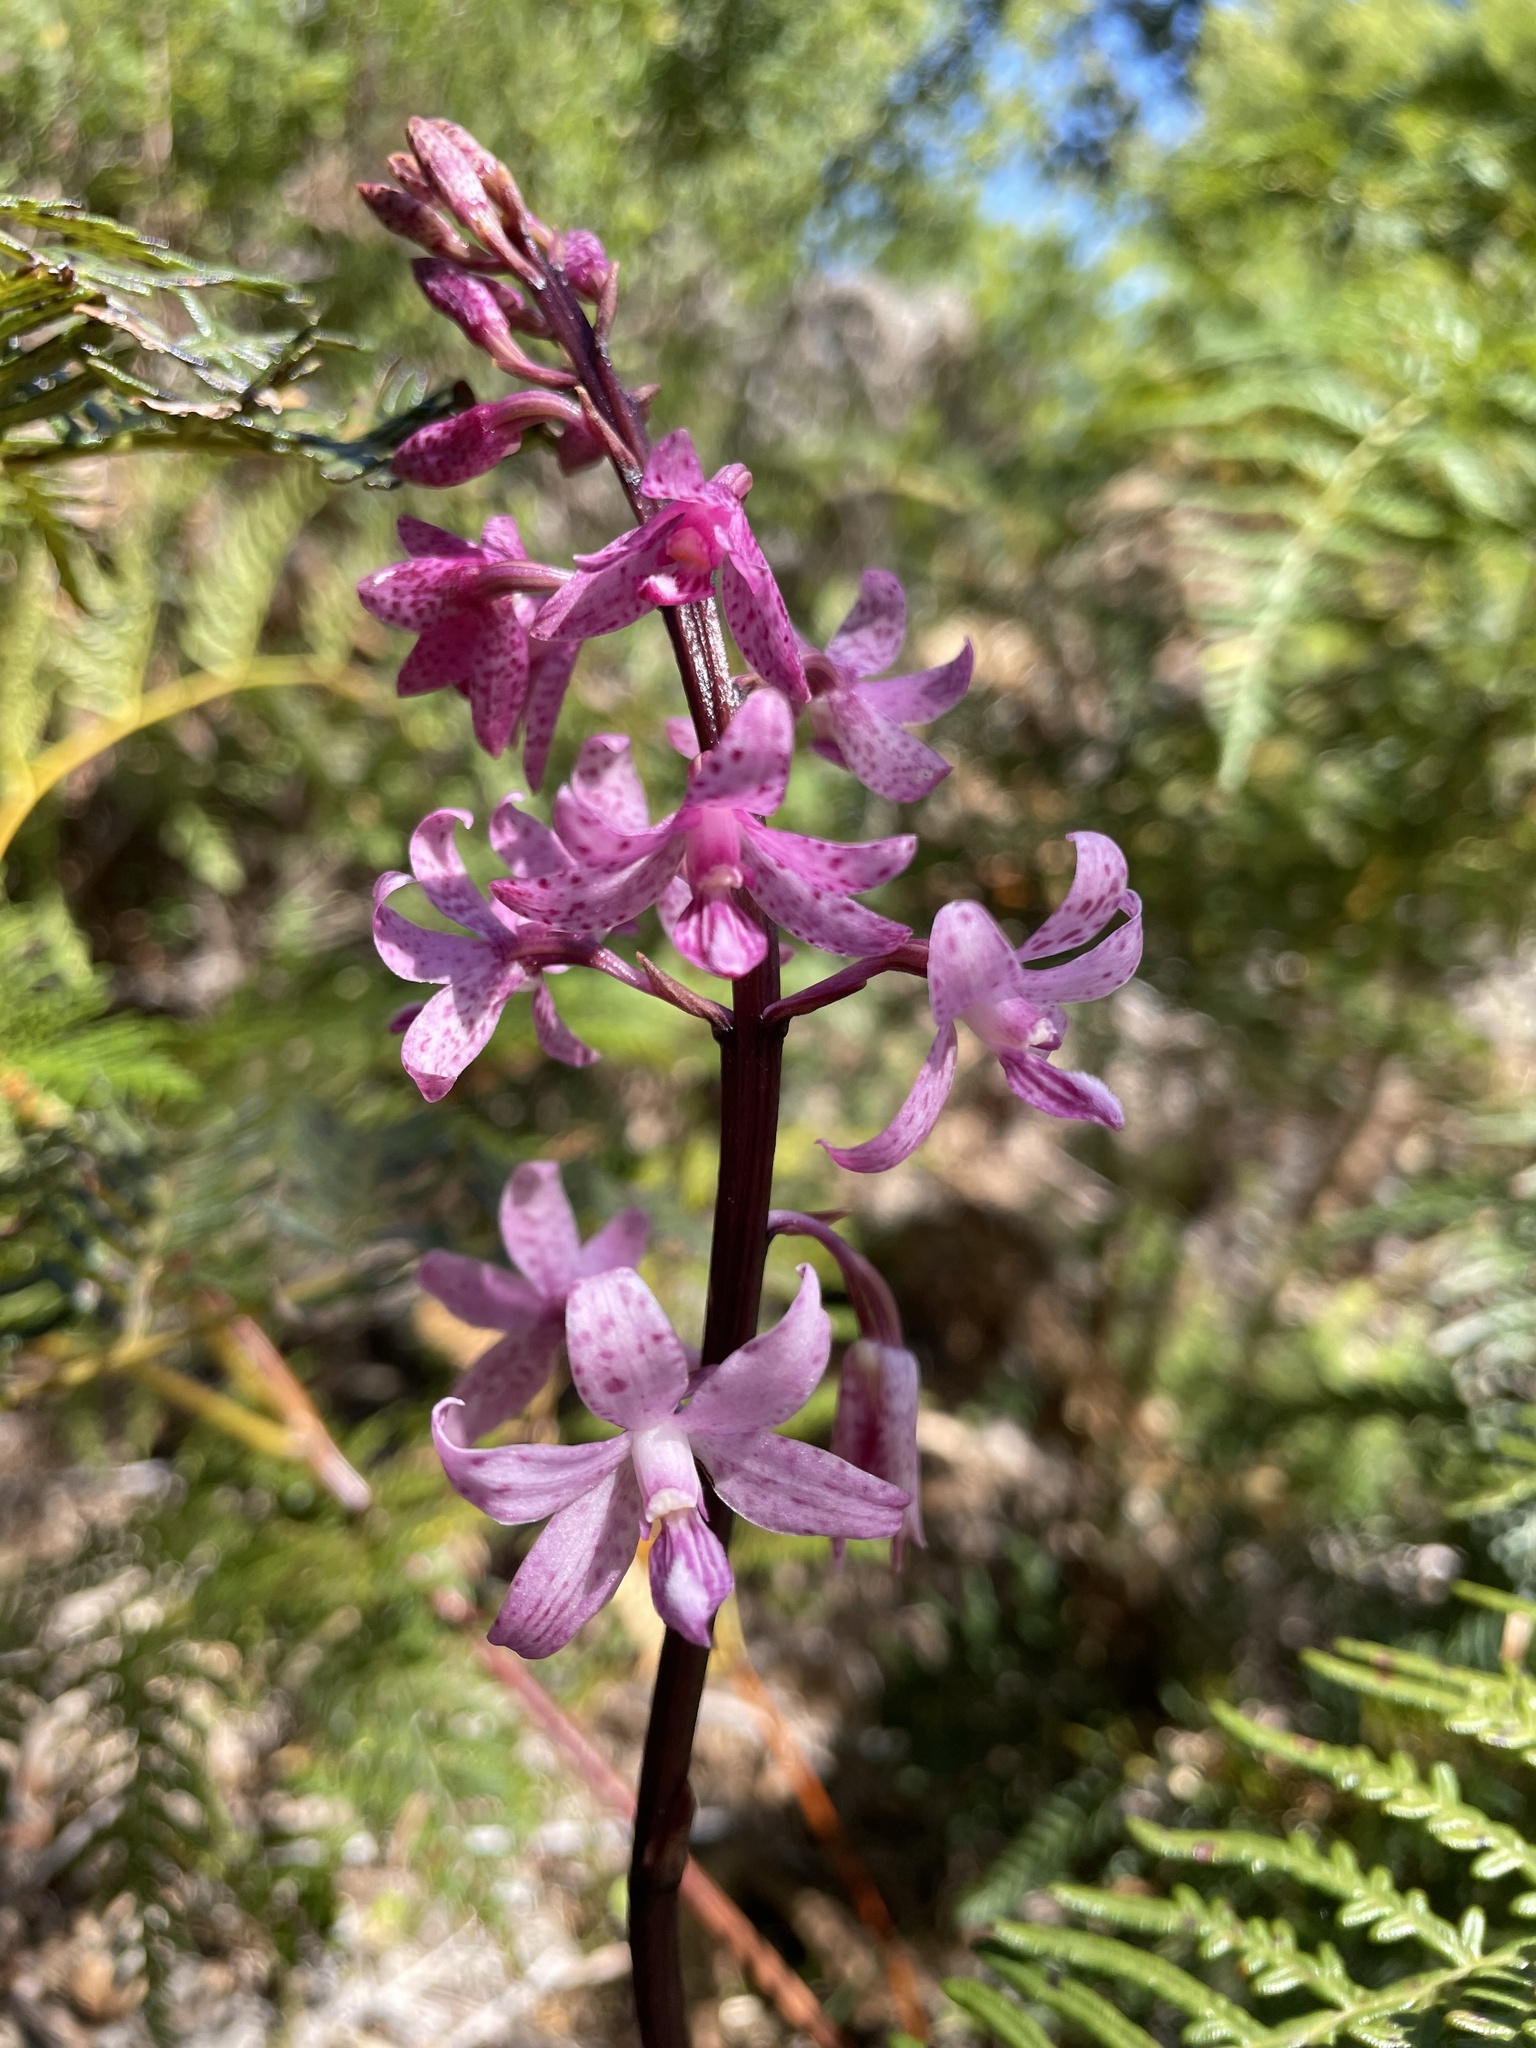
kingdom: Plantae
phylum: Tracheophyta
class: Liliopsida
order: Asparagales
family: Orchidaceae
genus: Dipodium
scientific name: Dipodium roseum
